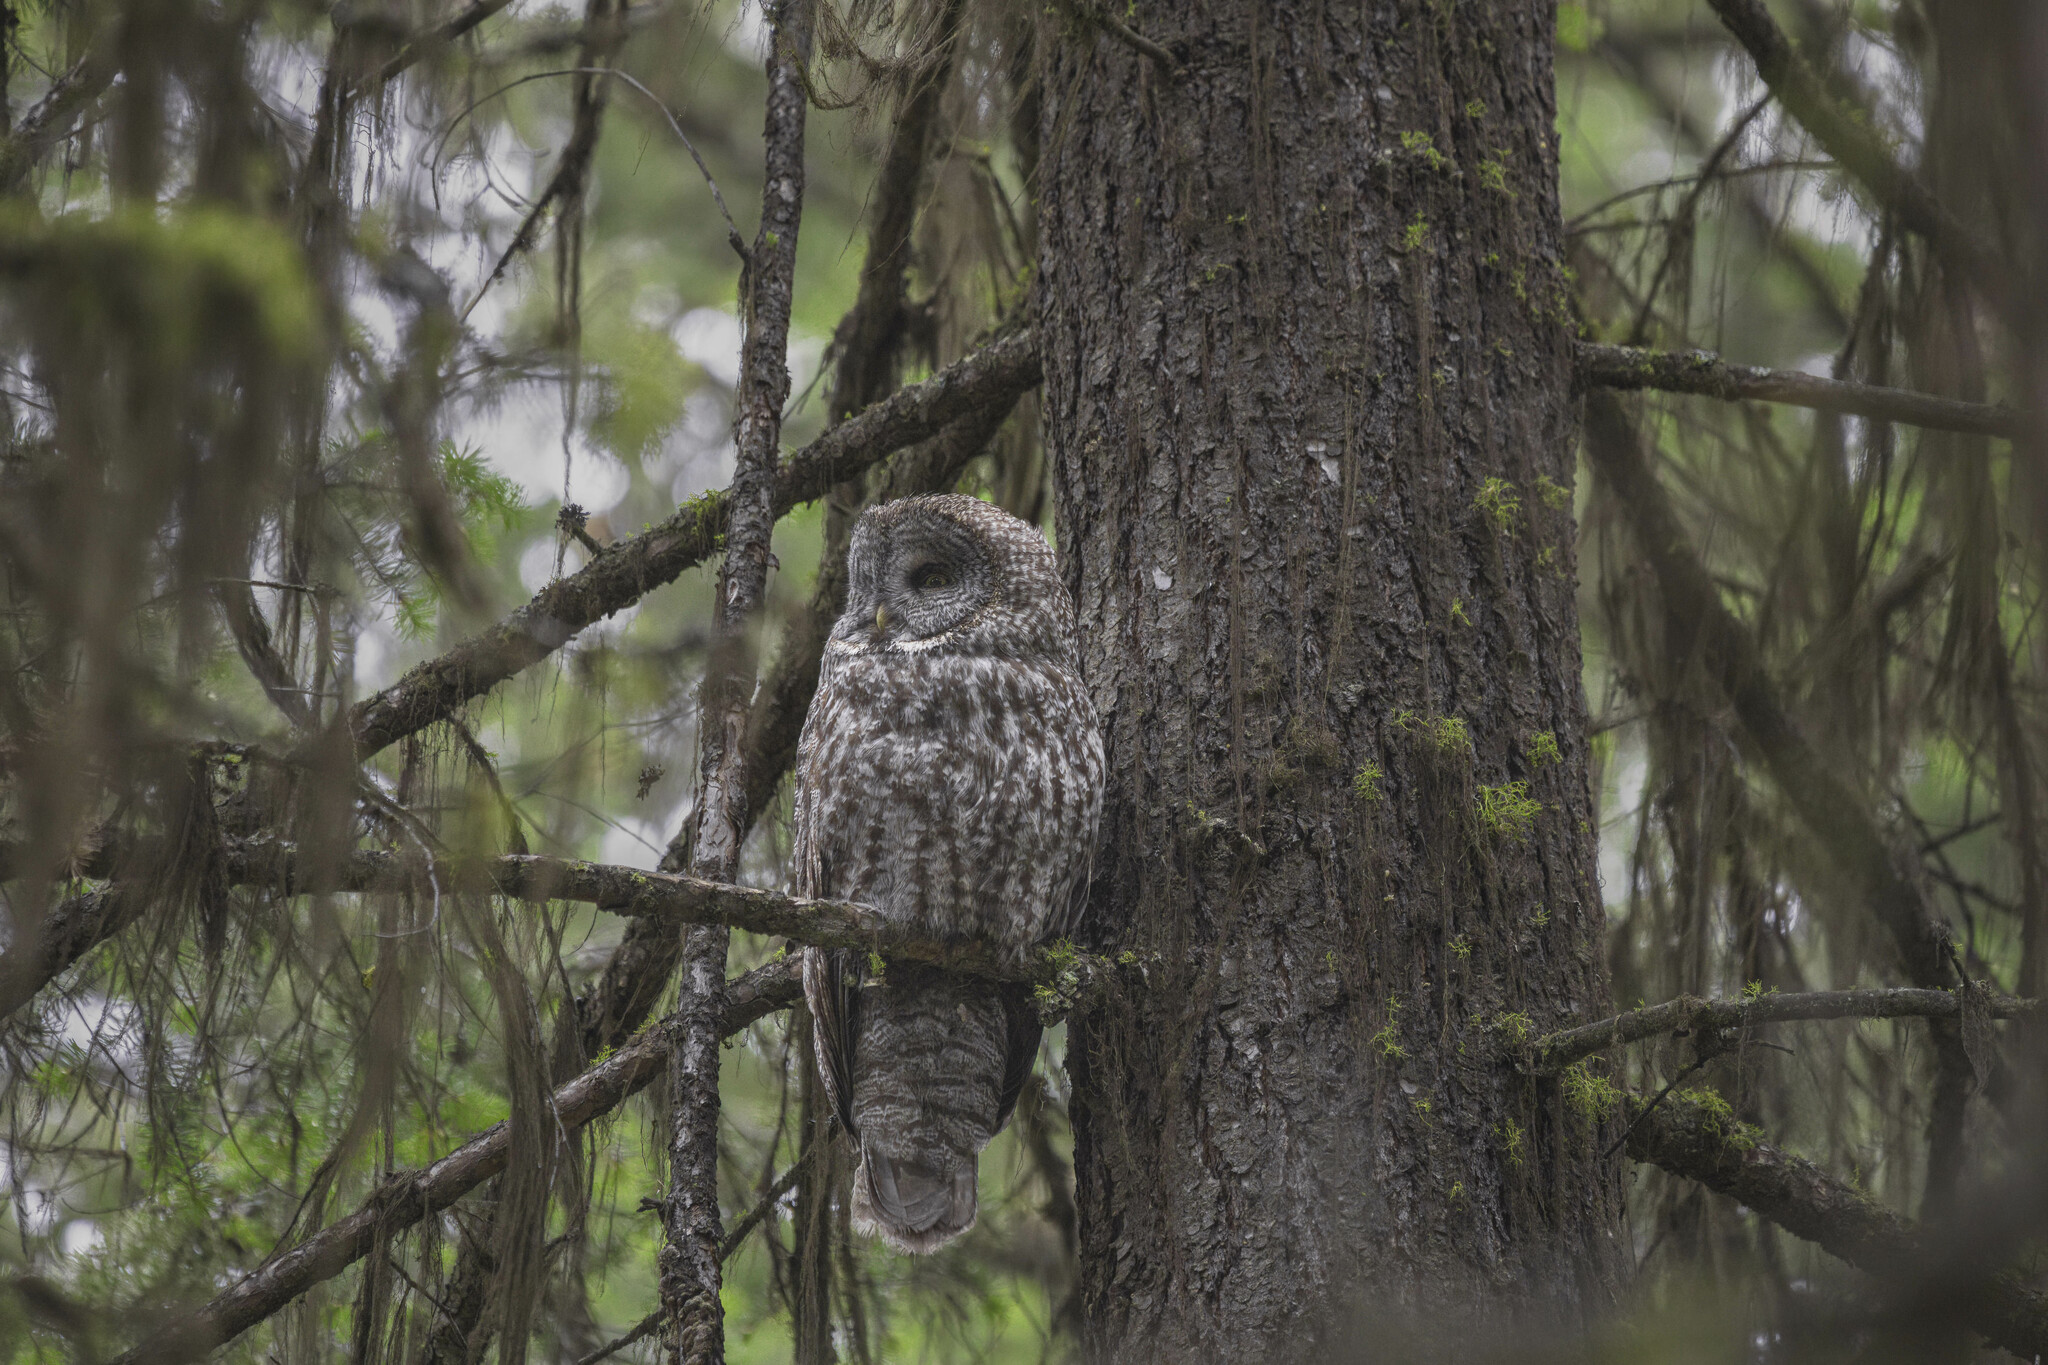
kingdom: Animalia
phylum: Chordata
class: Aves
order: Strigiformes
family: Strigidae
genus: Strix
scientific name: Strix nebulosa
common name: Great grey owl
